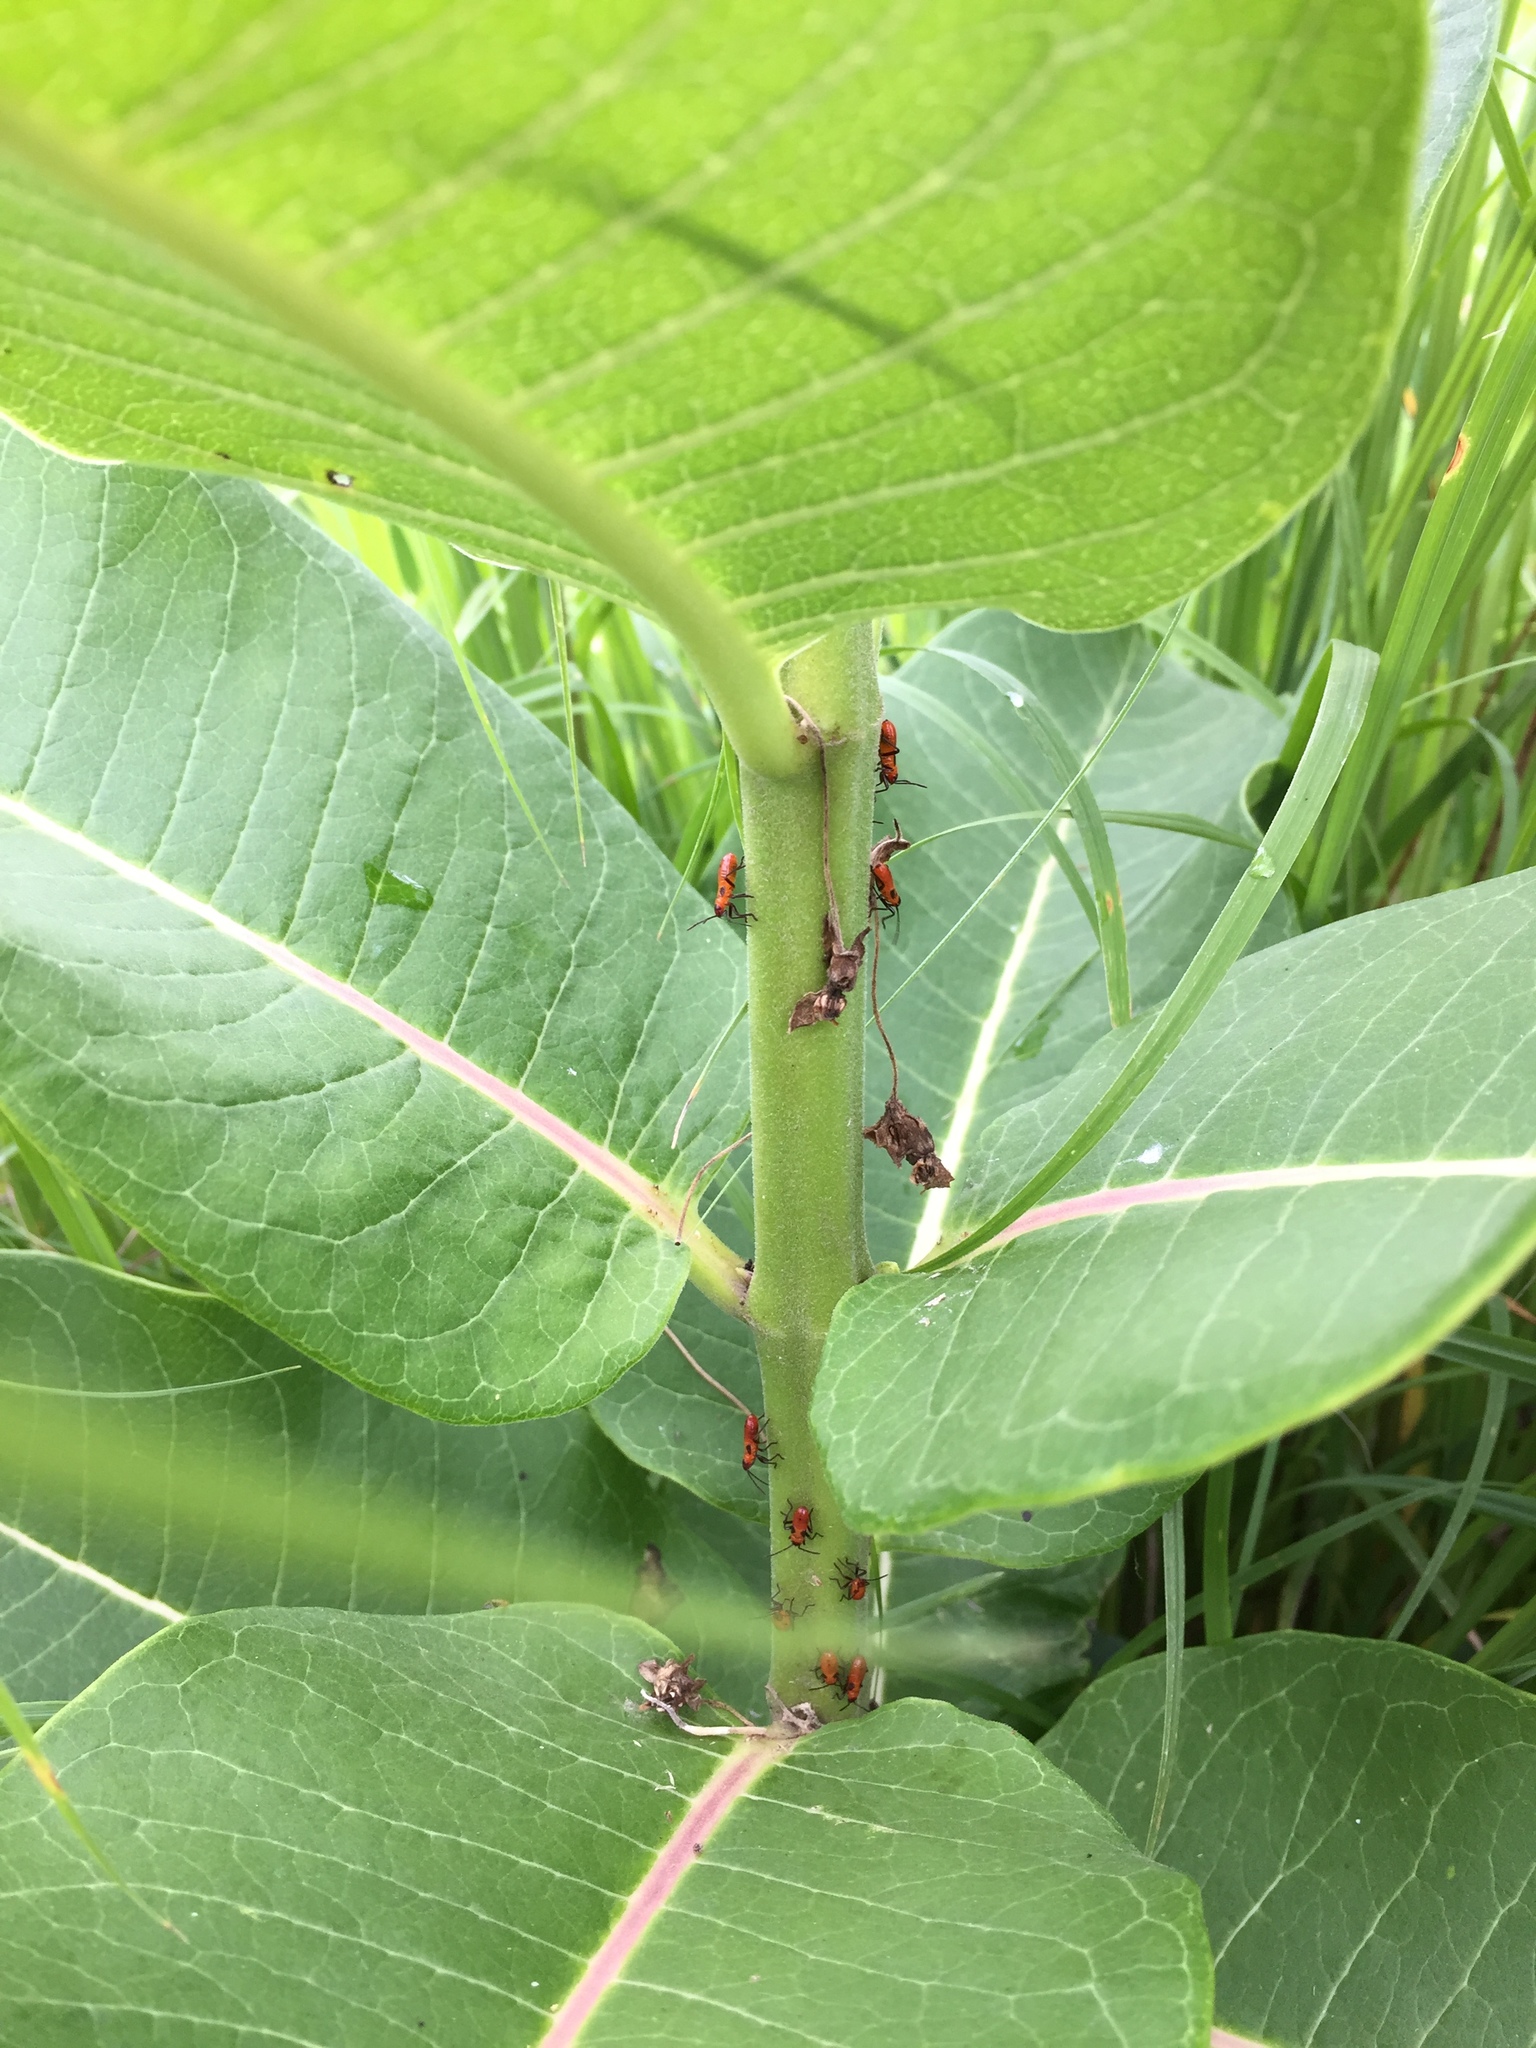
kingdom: Animalia
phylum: Arthropoda
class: Insecta
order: Hemiptera
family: Lygaeidae
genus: Oncopeltus
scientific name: Oncopeltus fasciatus
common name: Large milkweed bug
